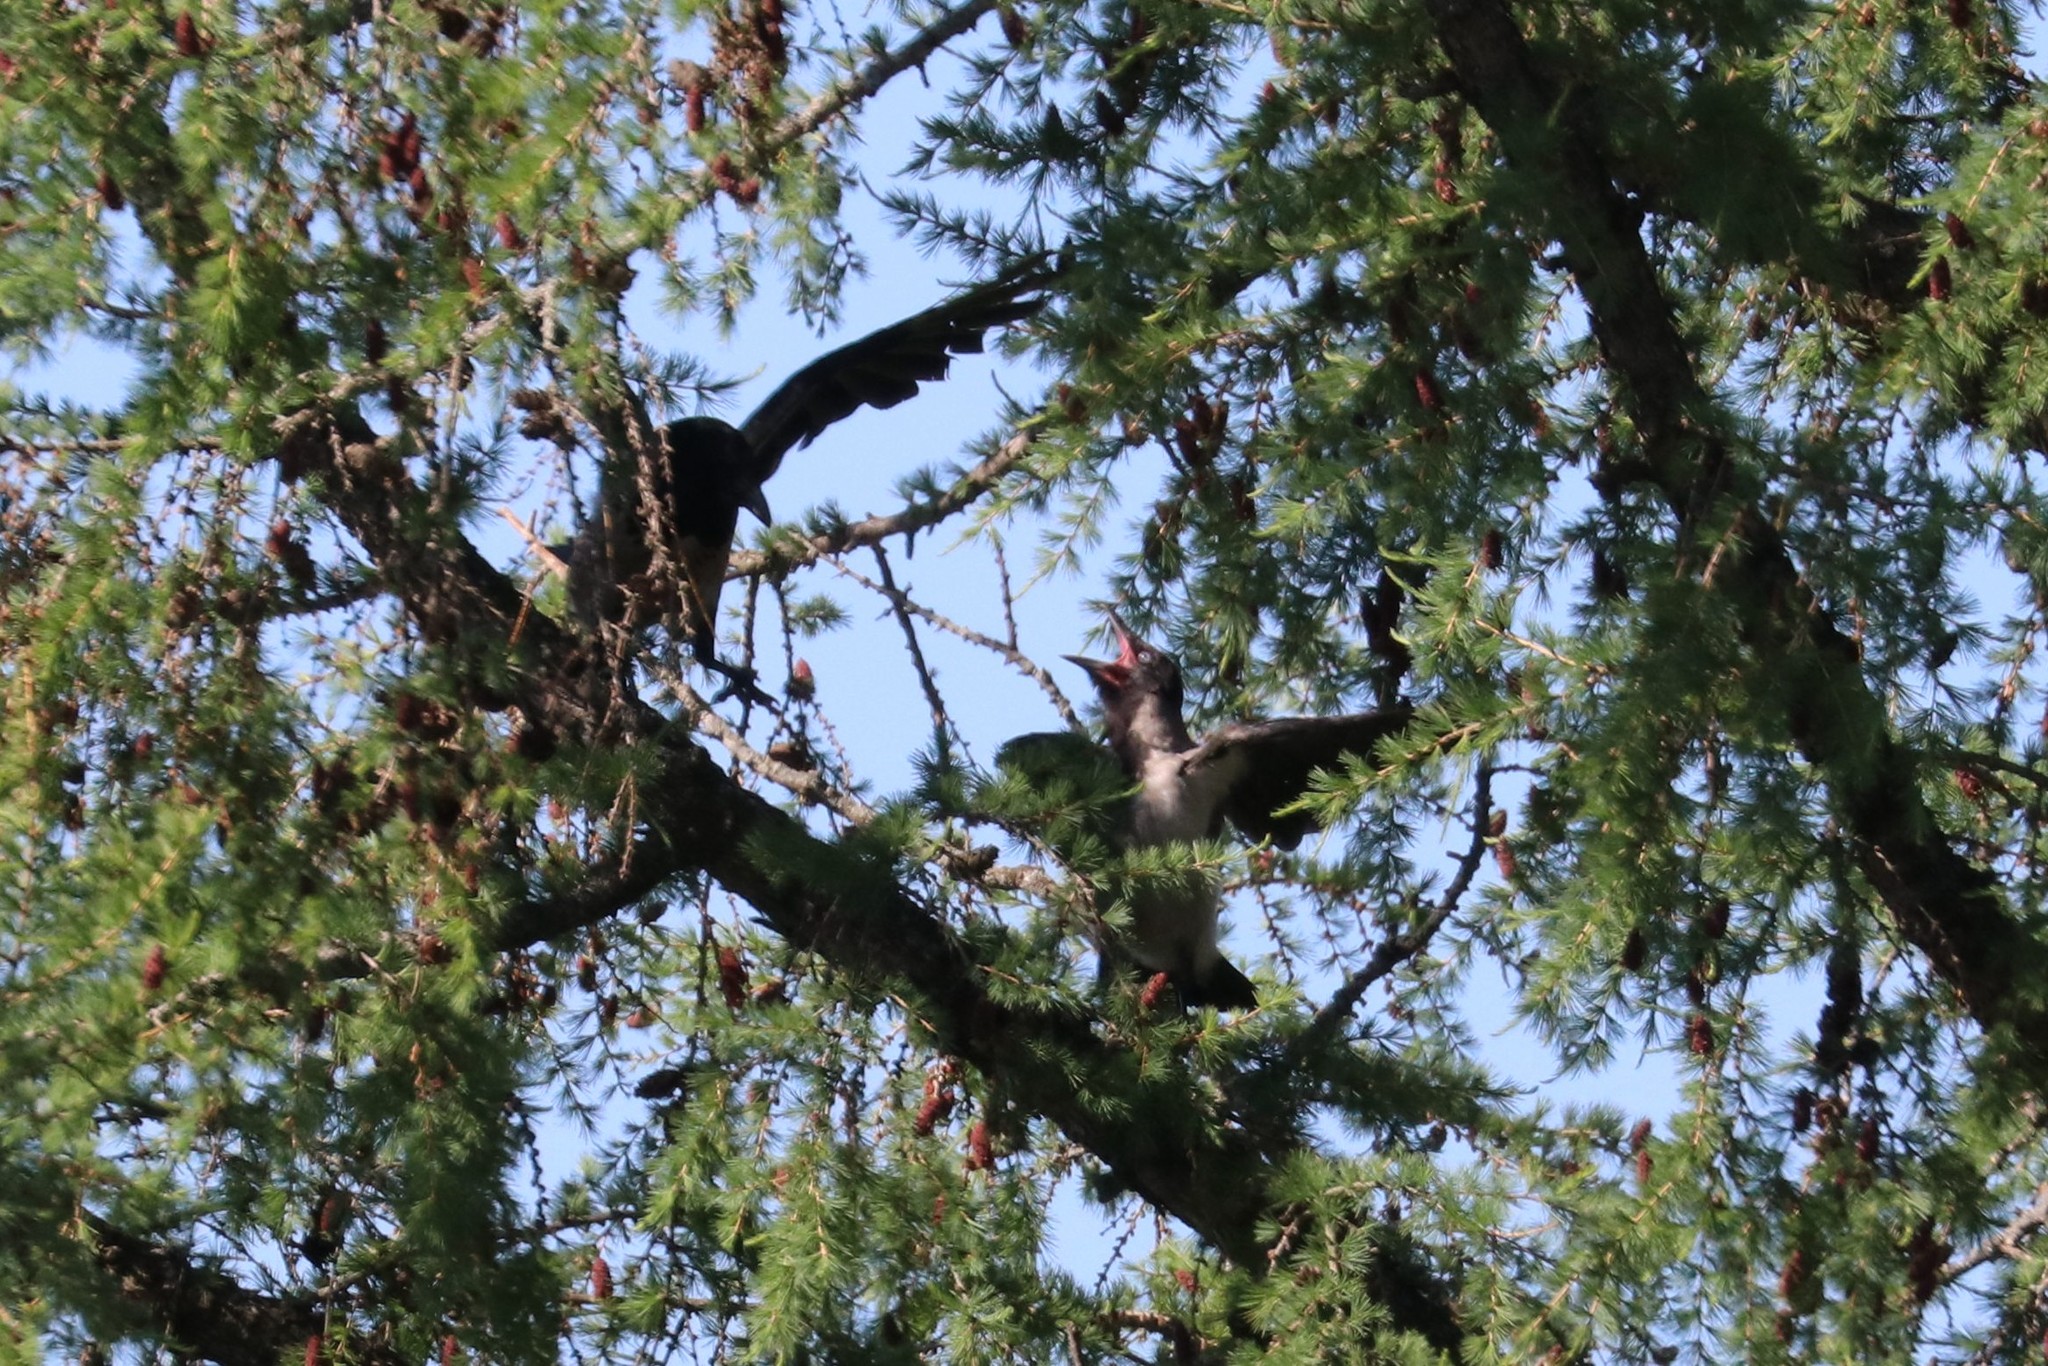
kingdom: Animalia
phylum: Chordata
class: Aves
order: Passeriformes
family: Corvidae
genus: Corvus
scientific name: Corvus cornix
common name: Hooded crow
